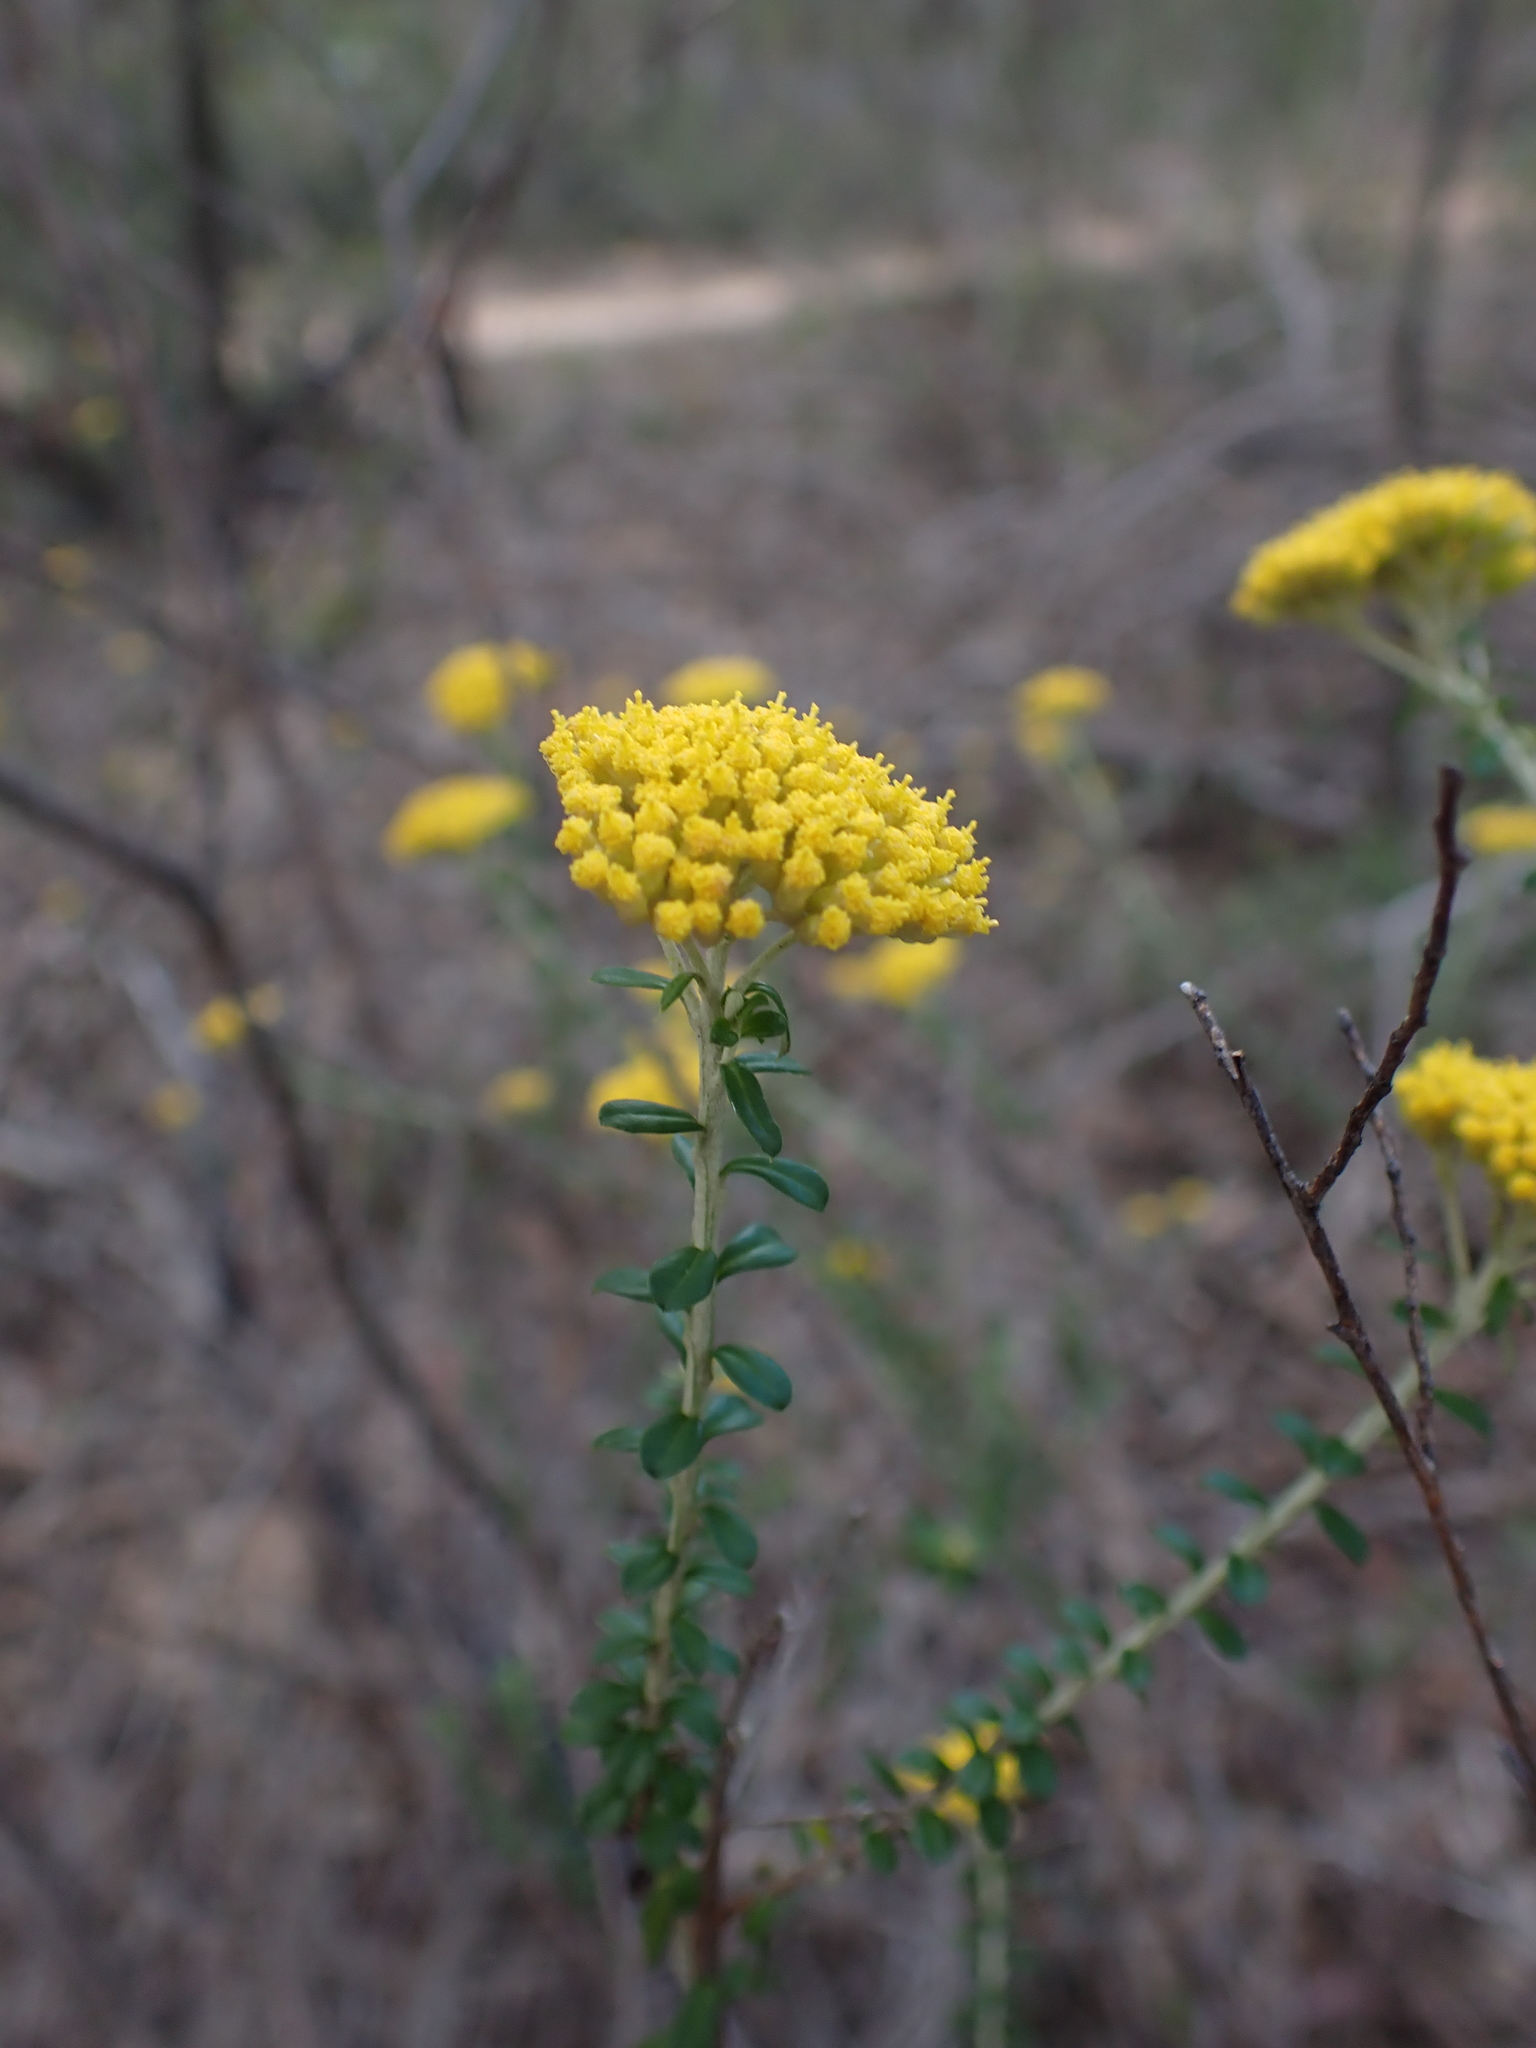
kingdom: Plantae
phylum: Tracheophyta
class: Magnoliopsida
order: Asterales
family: Asteraceae
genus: Ozothamnus
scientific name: Ozothamnus obcordatus
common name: Grey everlasting
